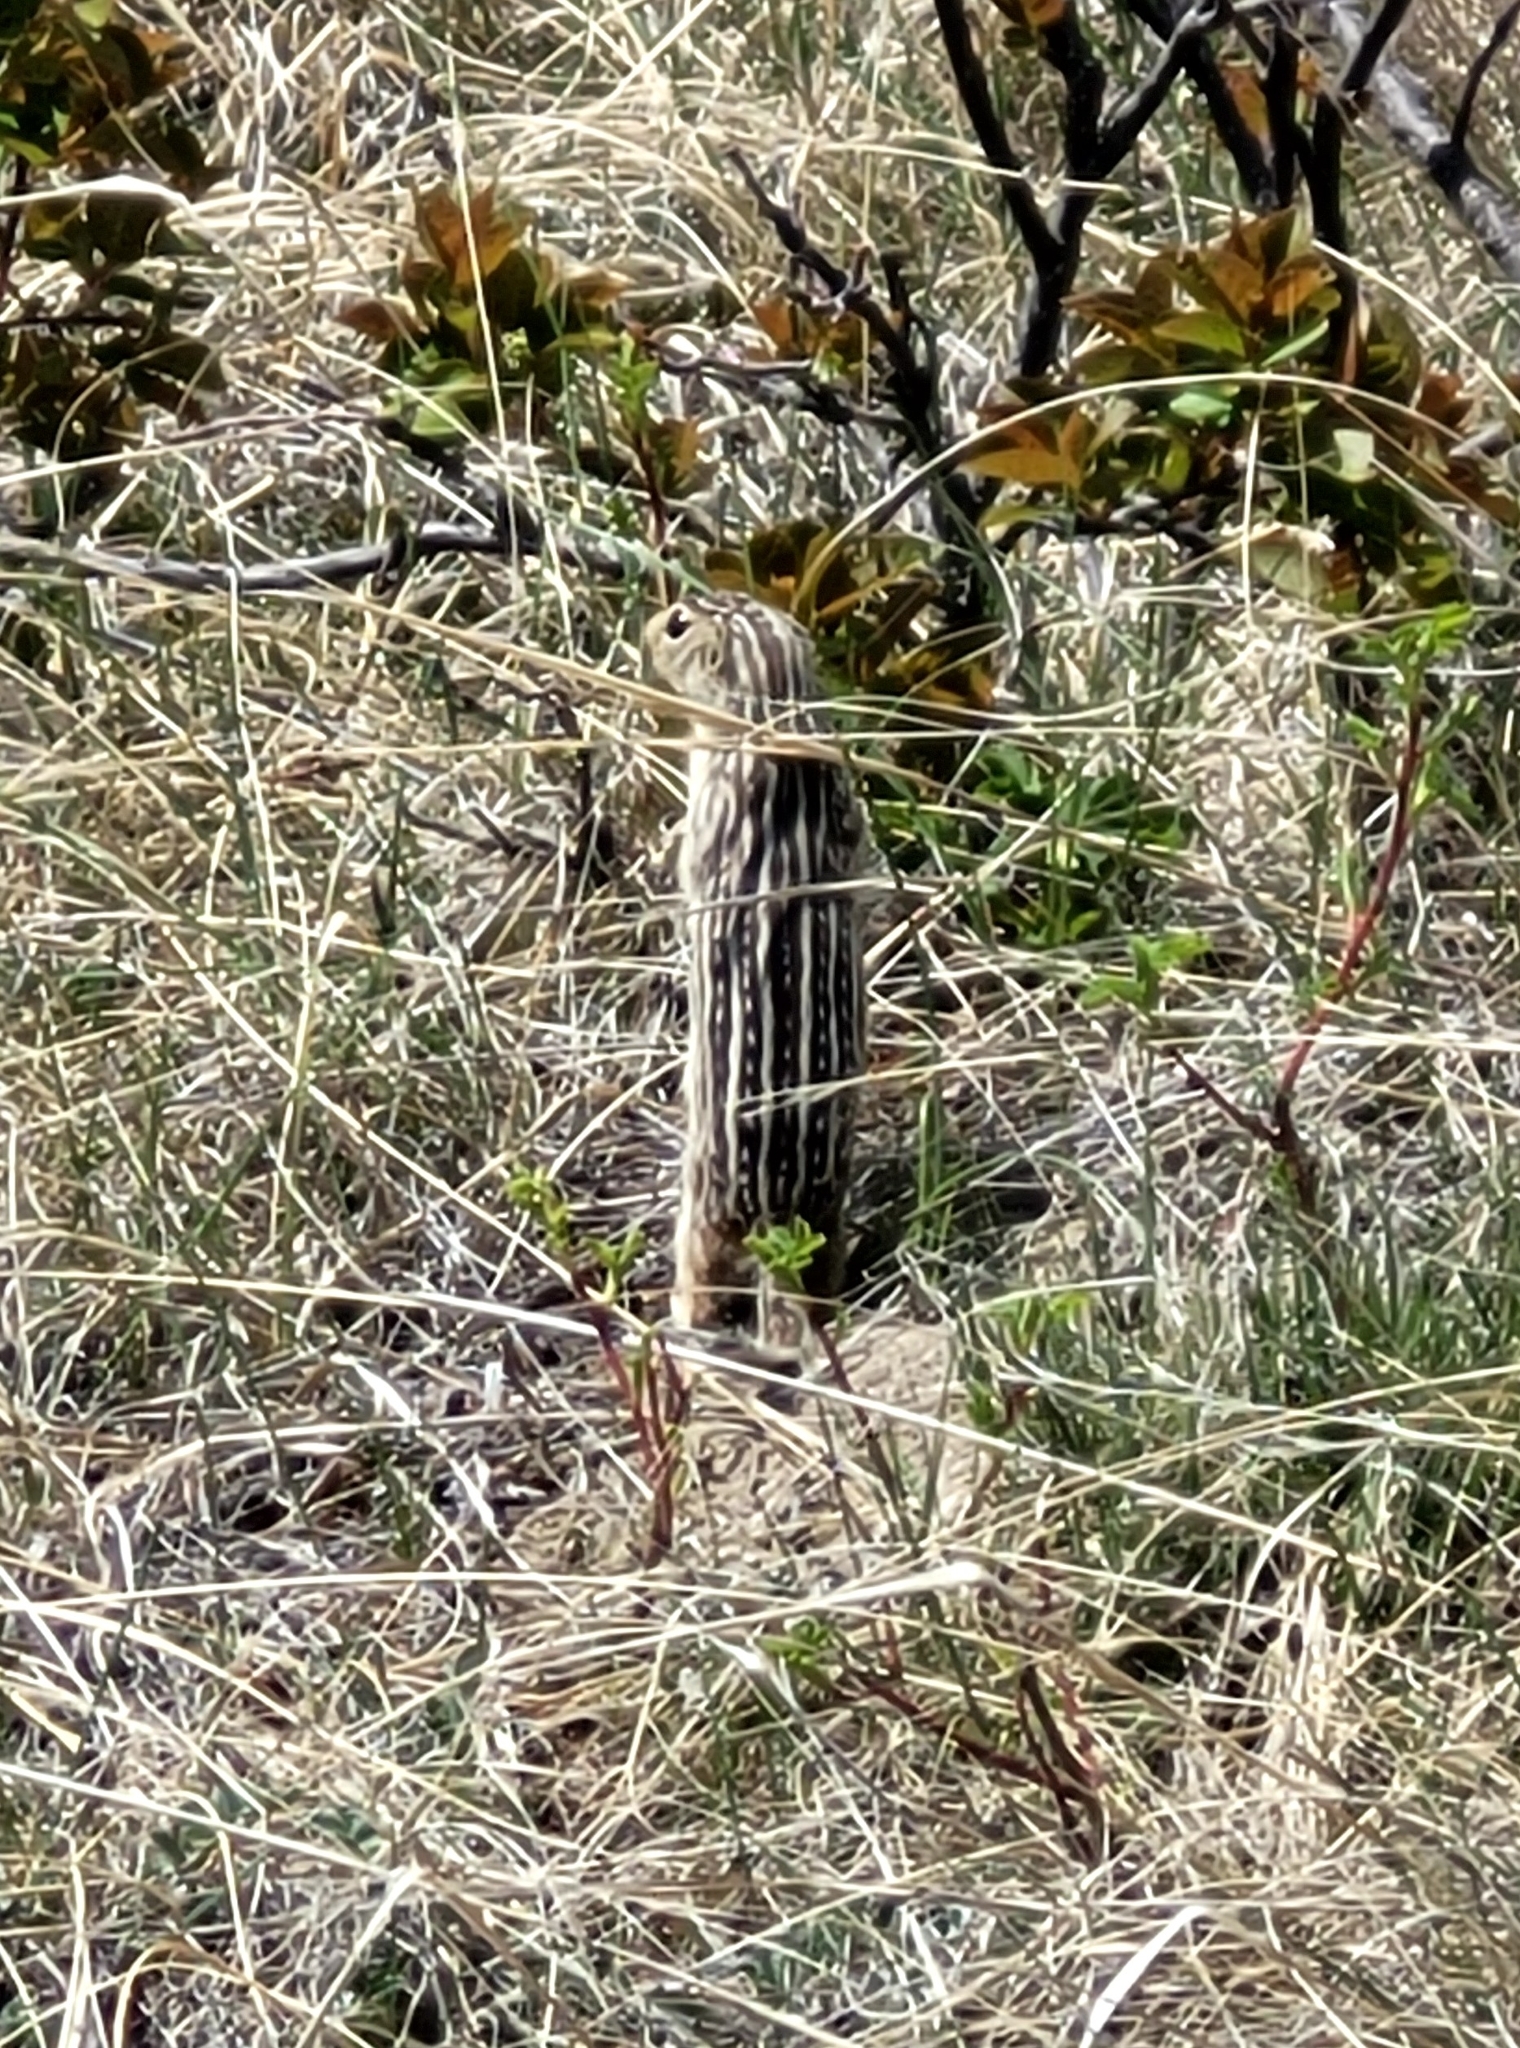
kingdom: Animalia
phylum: Chordata
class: Mammalia
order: Rodentia
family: Sciuridae
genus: Ictidomys
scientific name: Ictidomys tridecemlineatus
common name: Thirteen-lined ground squirrel
